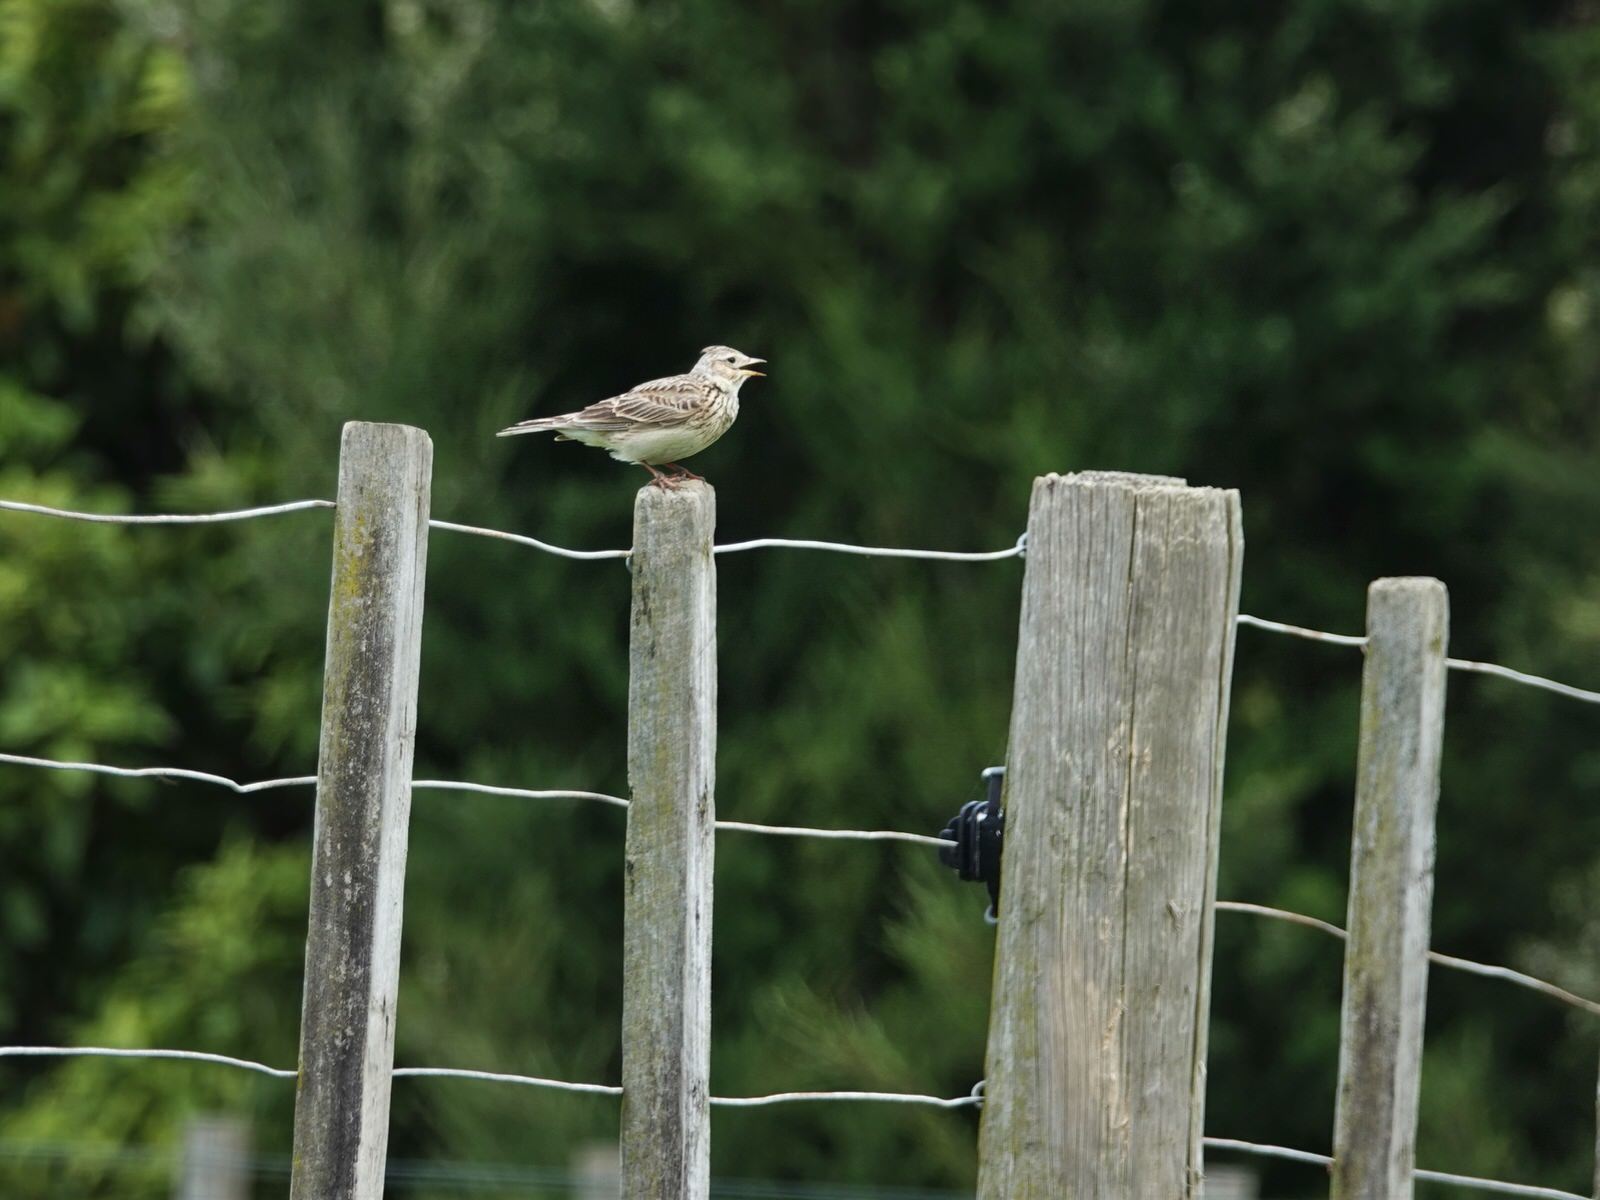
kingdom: Animalia
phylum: Chordata
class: Aves
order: Passeriformes
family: Alaudidae
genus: Alauda
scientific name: Alauda arvensis
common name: Eurasian skylark
